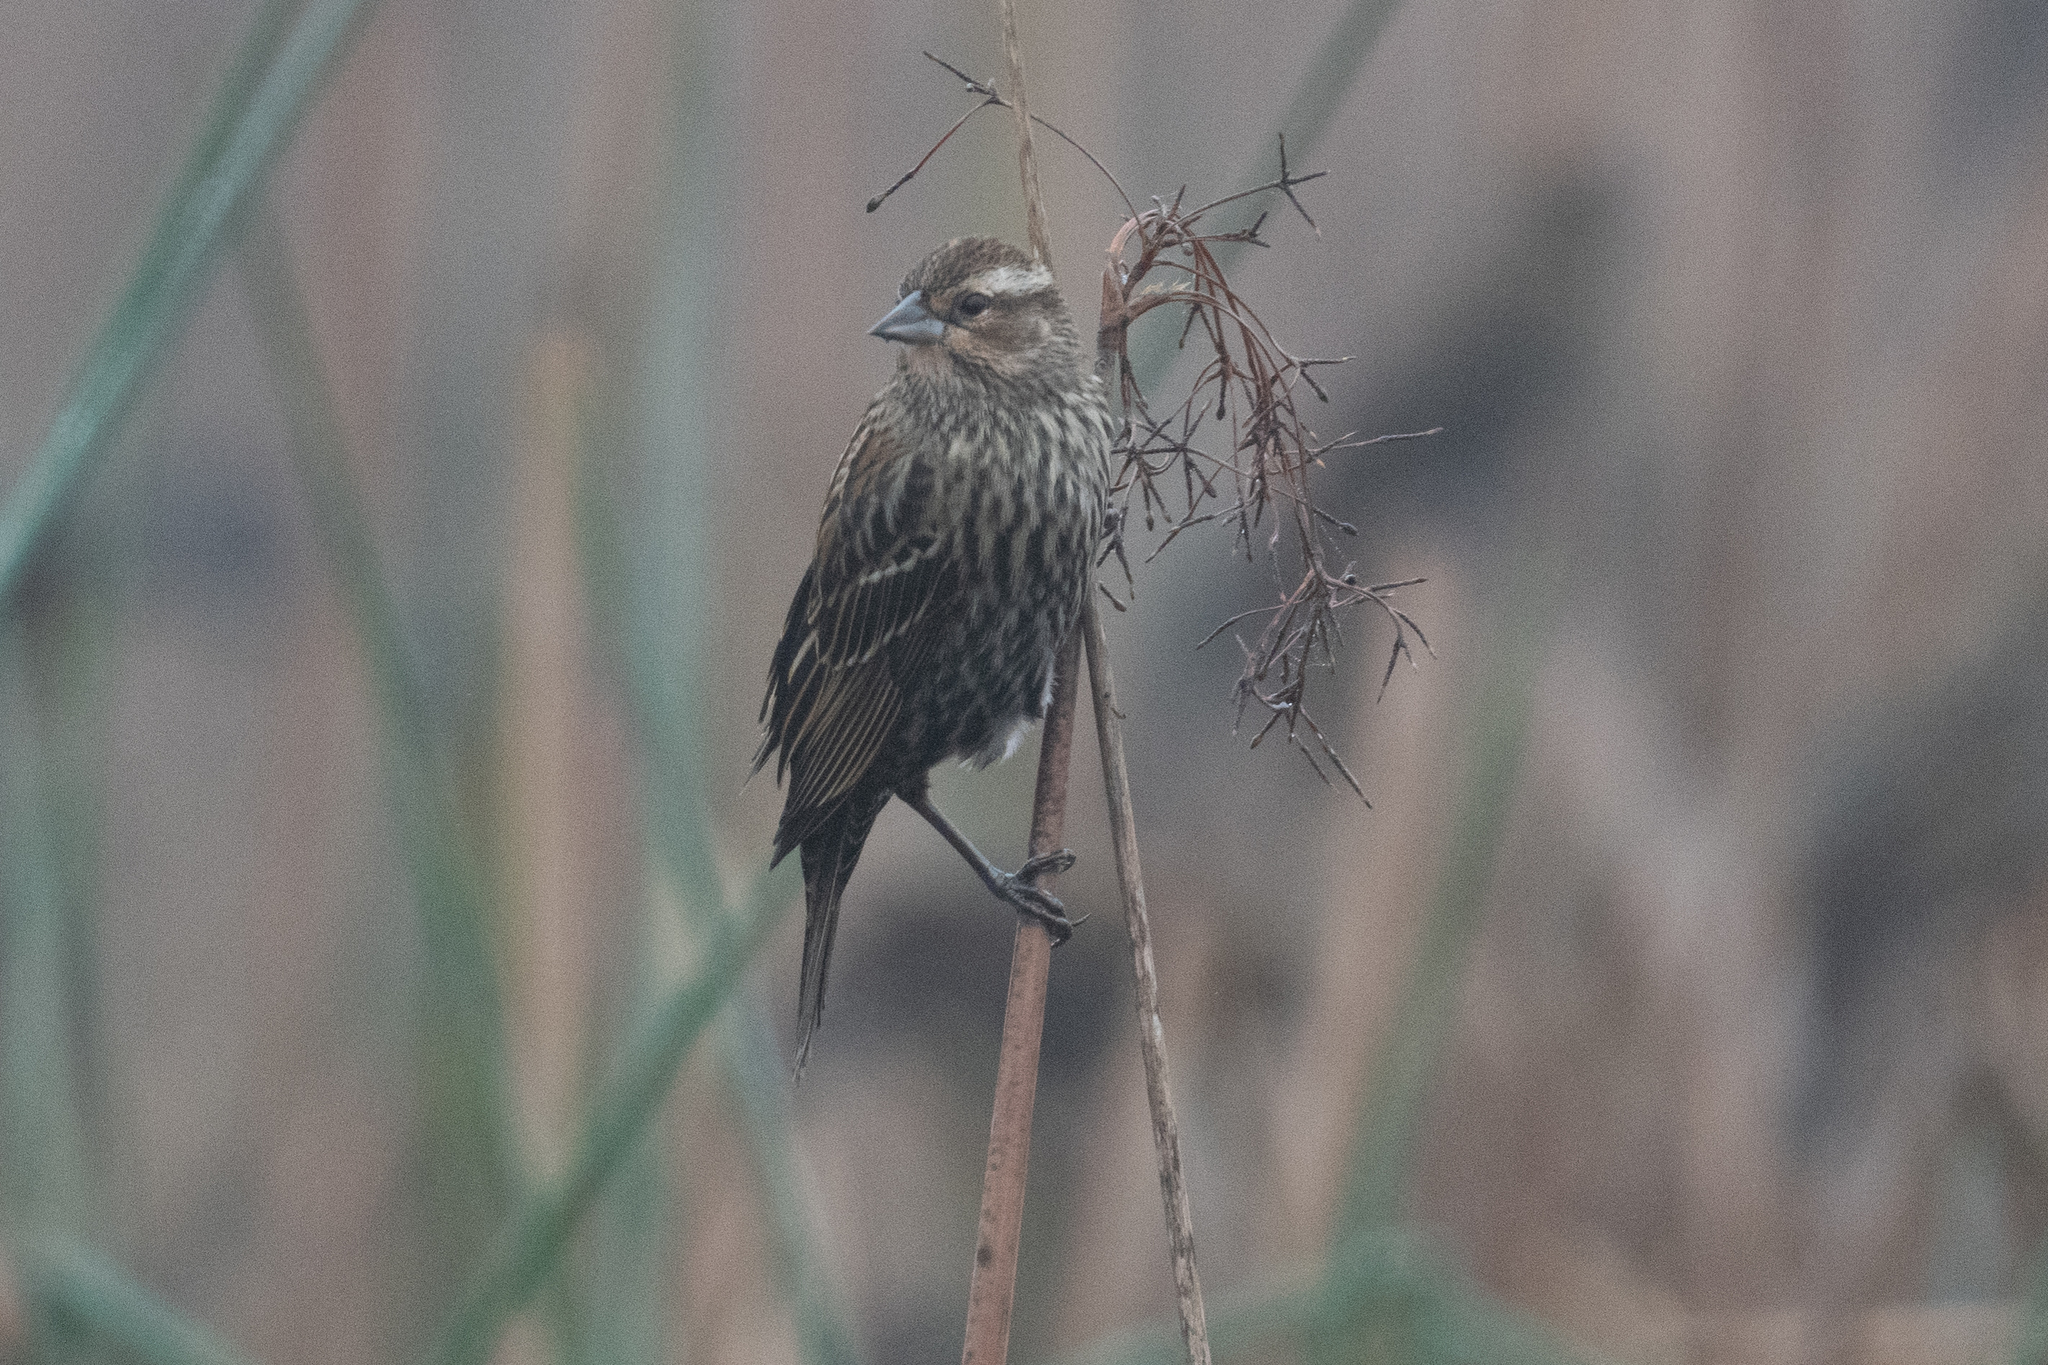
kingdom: Animalia
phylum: Chordata
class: Aves
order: Passeriformes
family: Icteridae
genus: Agelaius
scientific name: Agelaius phoeniceus
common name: Red-winged blackbird
